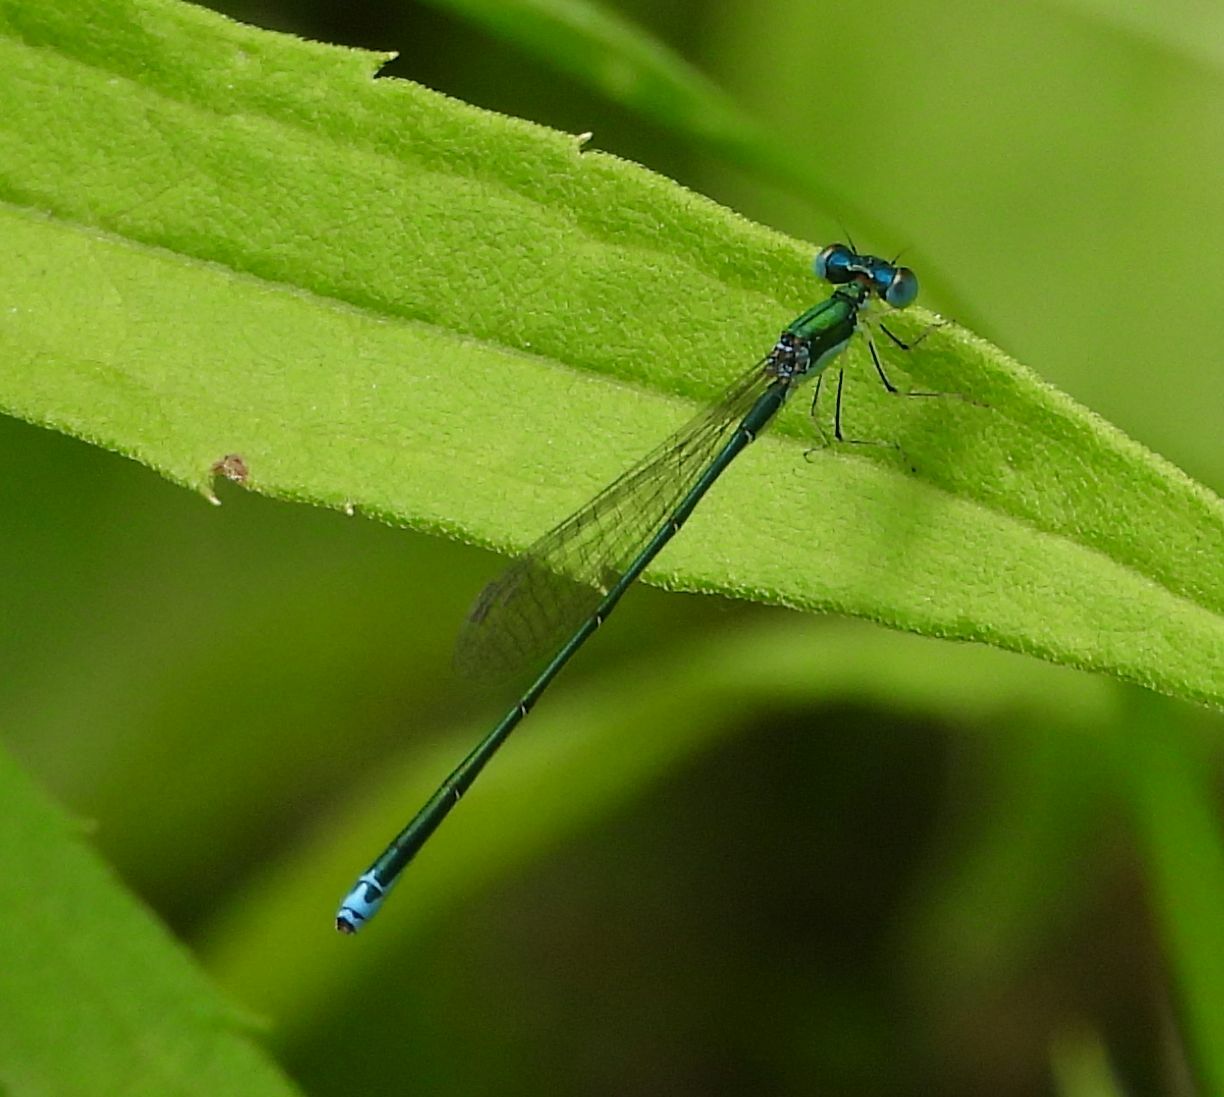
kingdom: Animalia
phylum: Arthropoda
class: Insecta
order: Odonata
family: Coenagrionidae
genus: Nehalennia
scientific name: Nehalennia irene
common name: Sedge sprite
